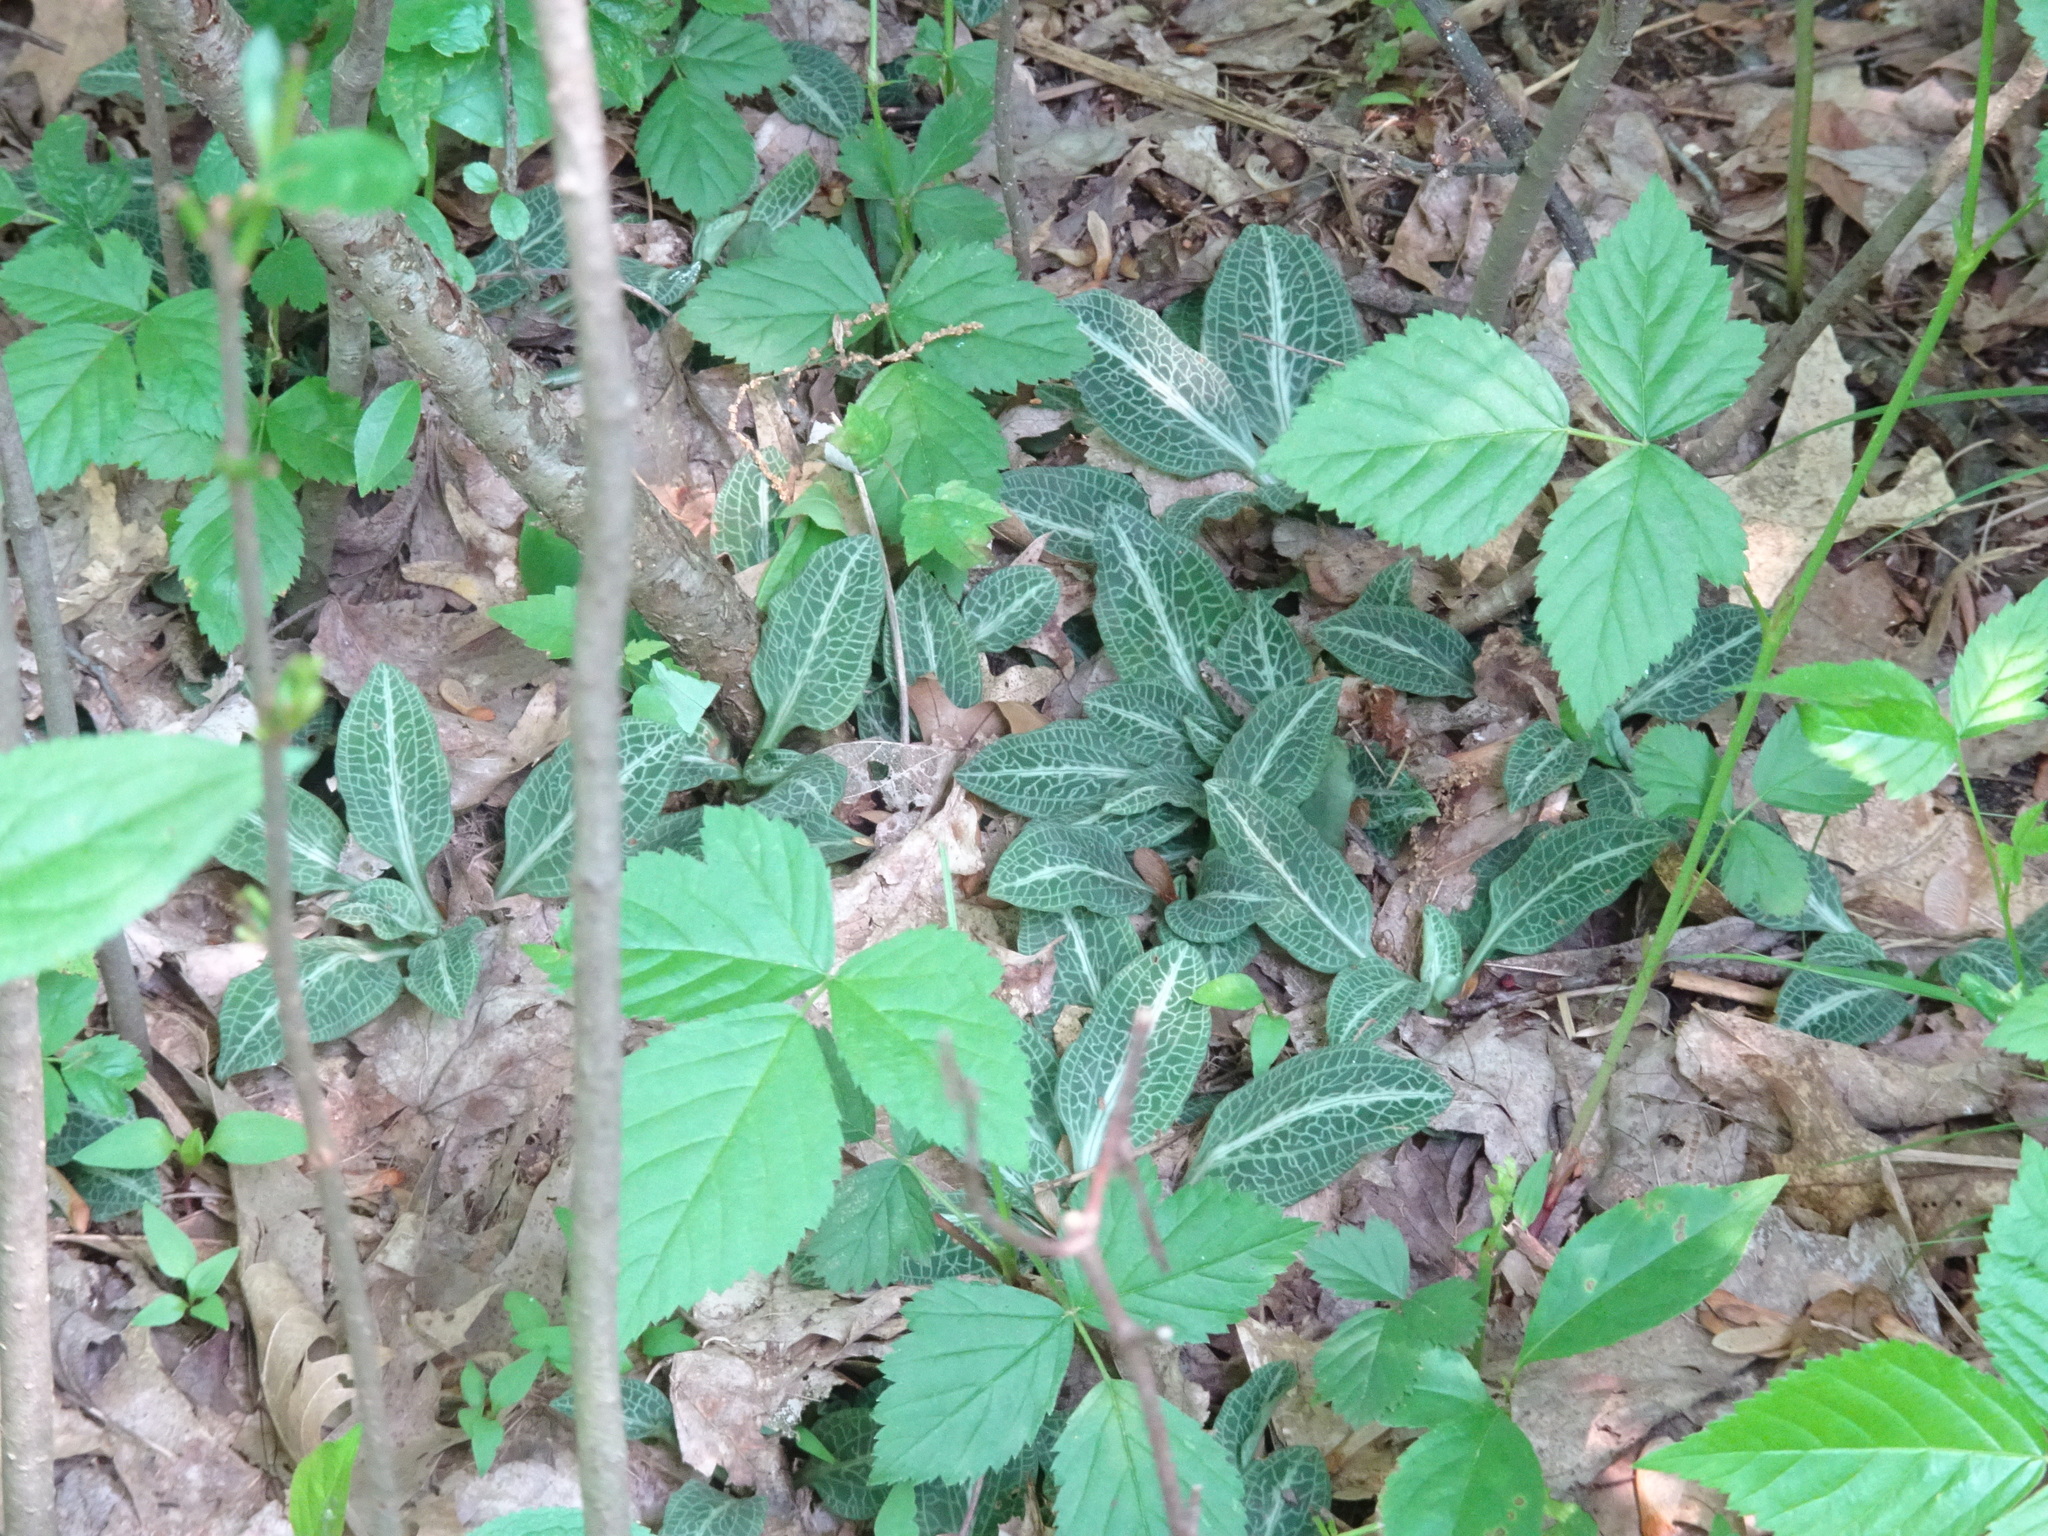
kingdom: Plantae
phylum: Tracheophyta
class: Liliopsida
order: Asparagales
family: Orchidaceae
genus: Goodyera
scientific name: Goodyera pubescens
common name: Downy rattlesnake-plantain
